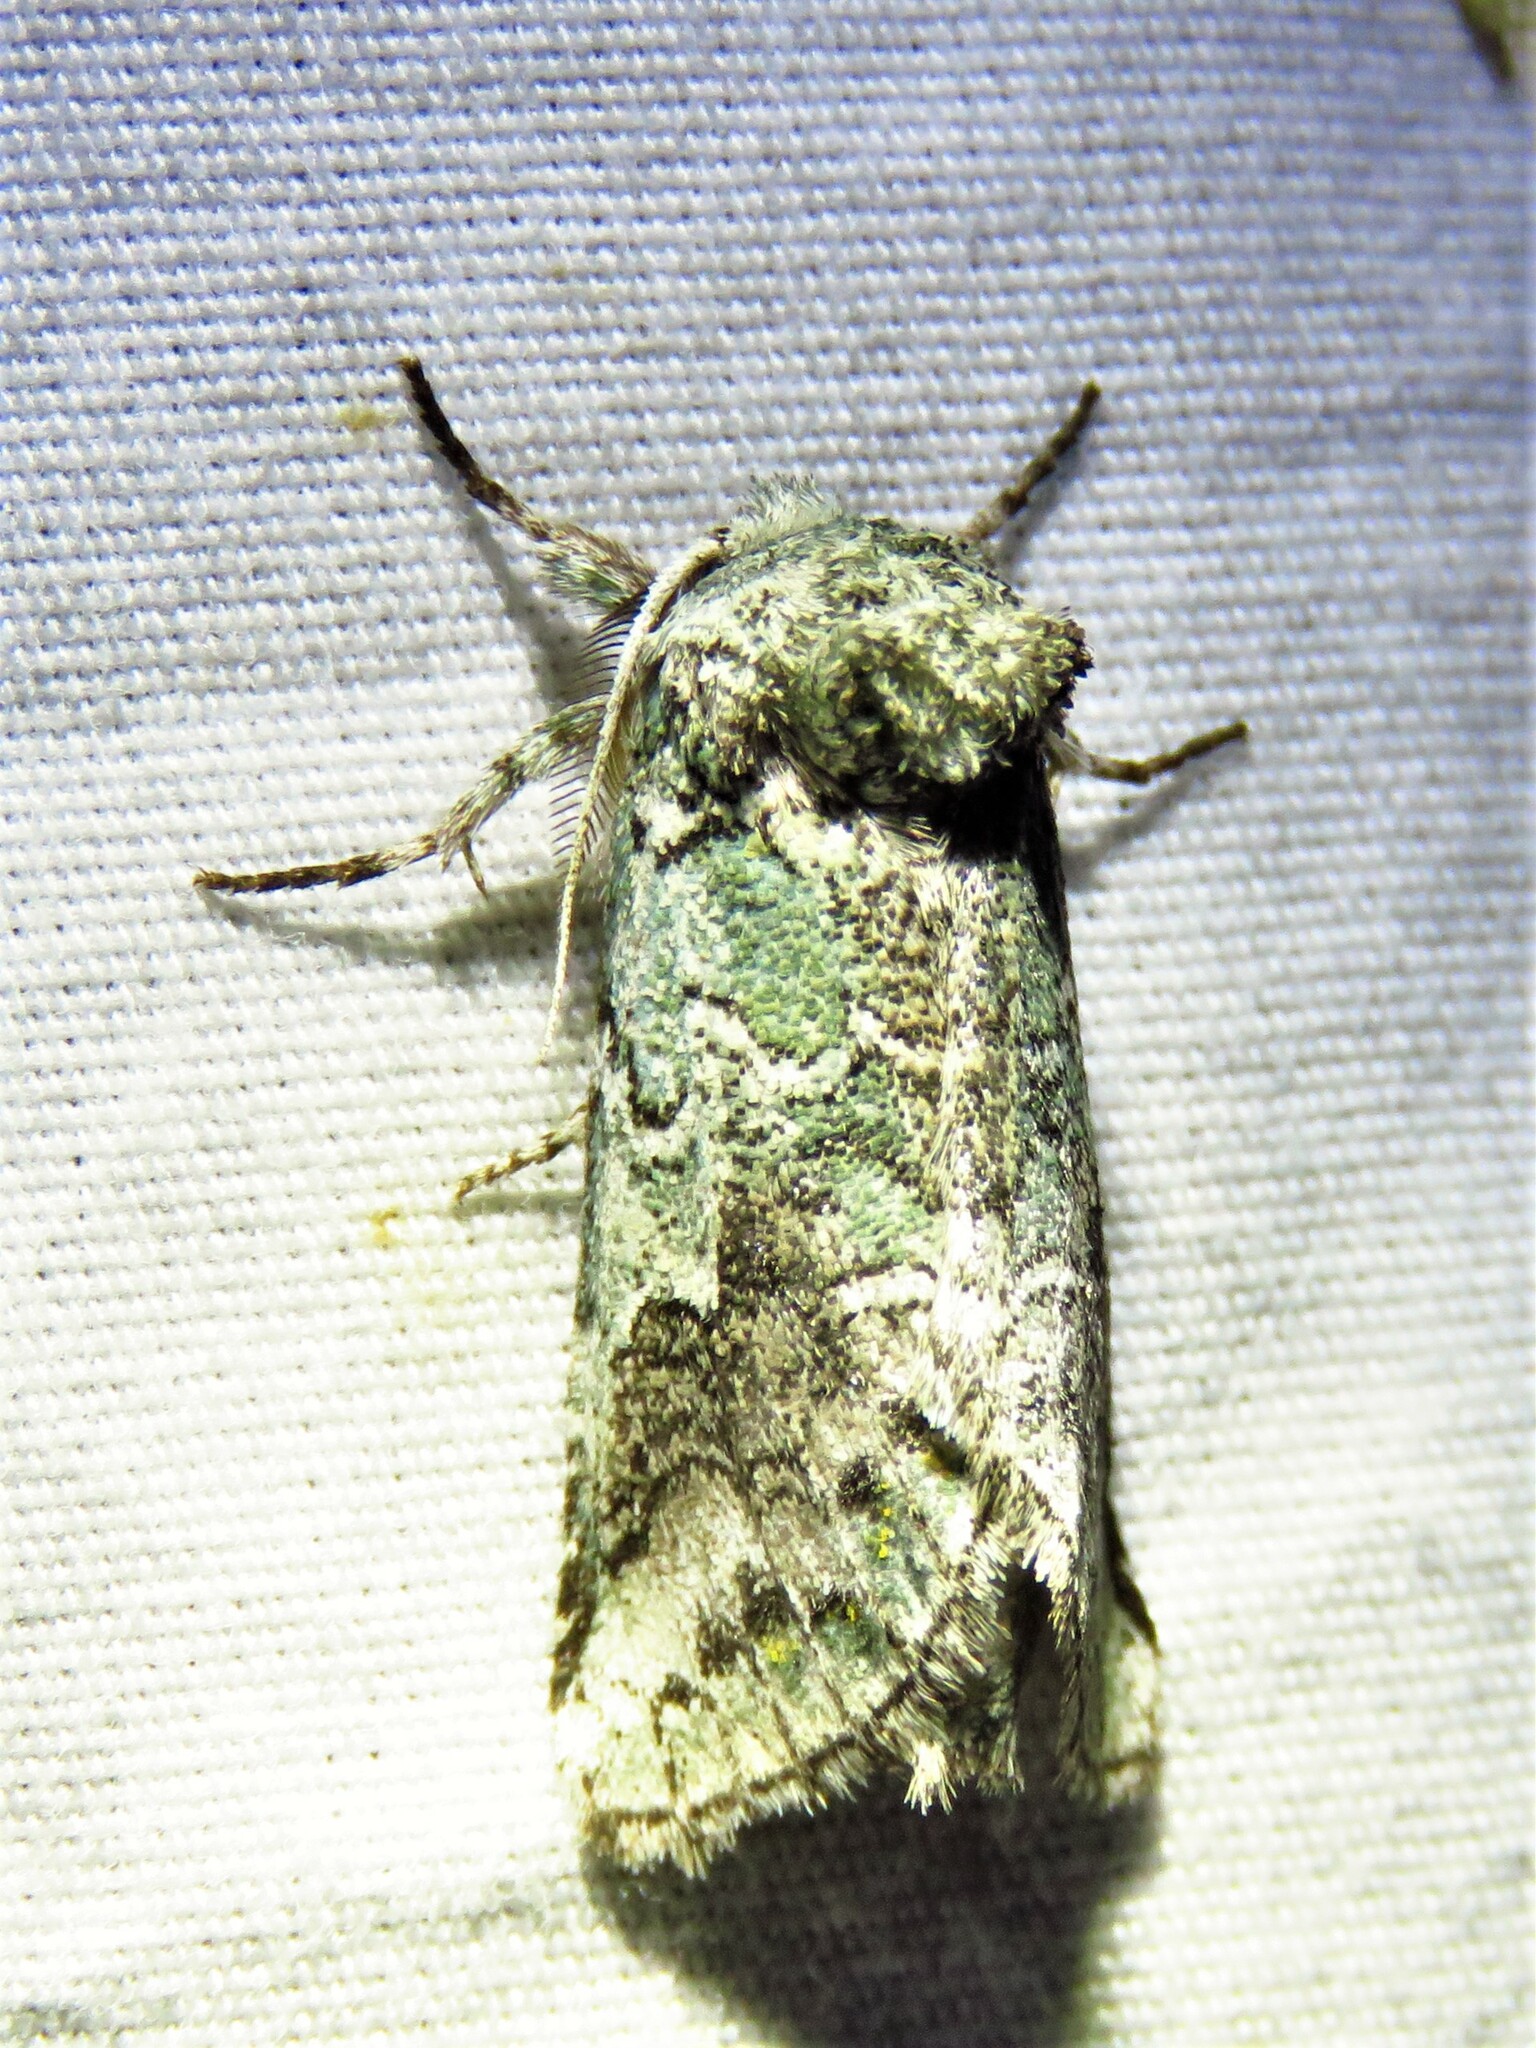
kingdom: Animalia
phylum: Arthropoda
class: Insecta
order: Lepidoptera
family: Notodontidae
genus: Litodonta
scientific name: Litodonta hydromeli
